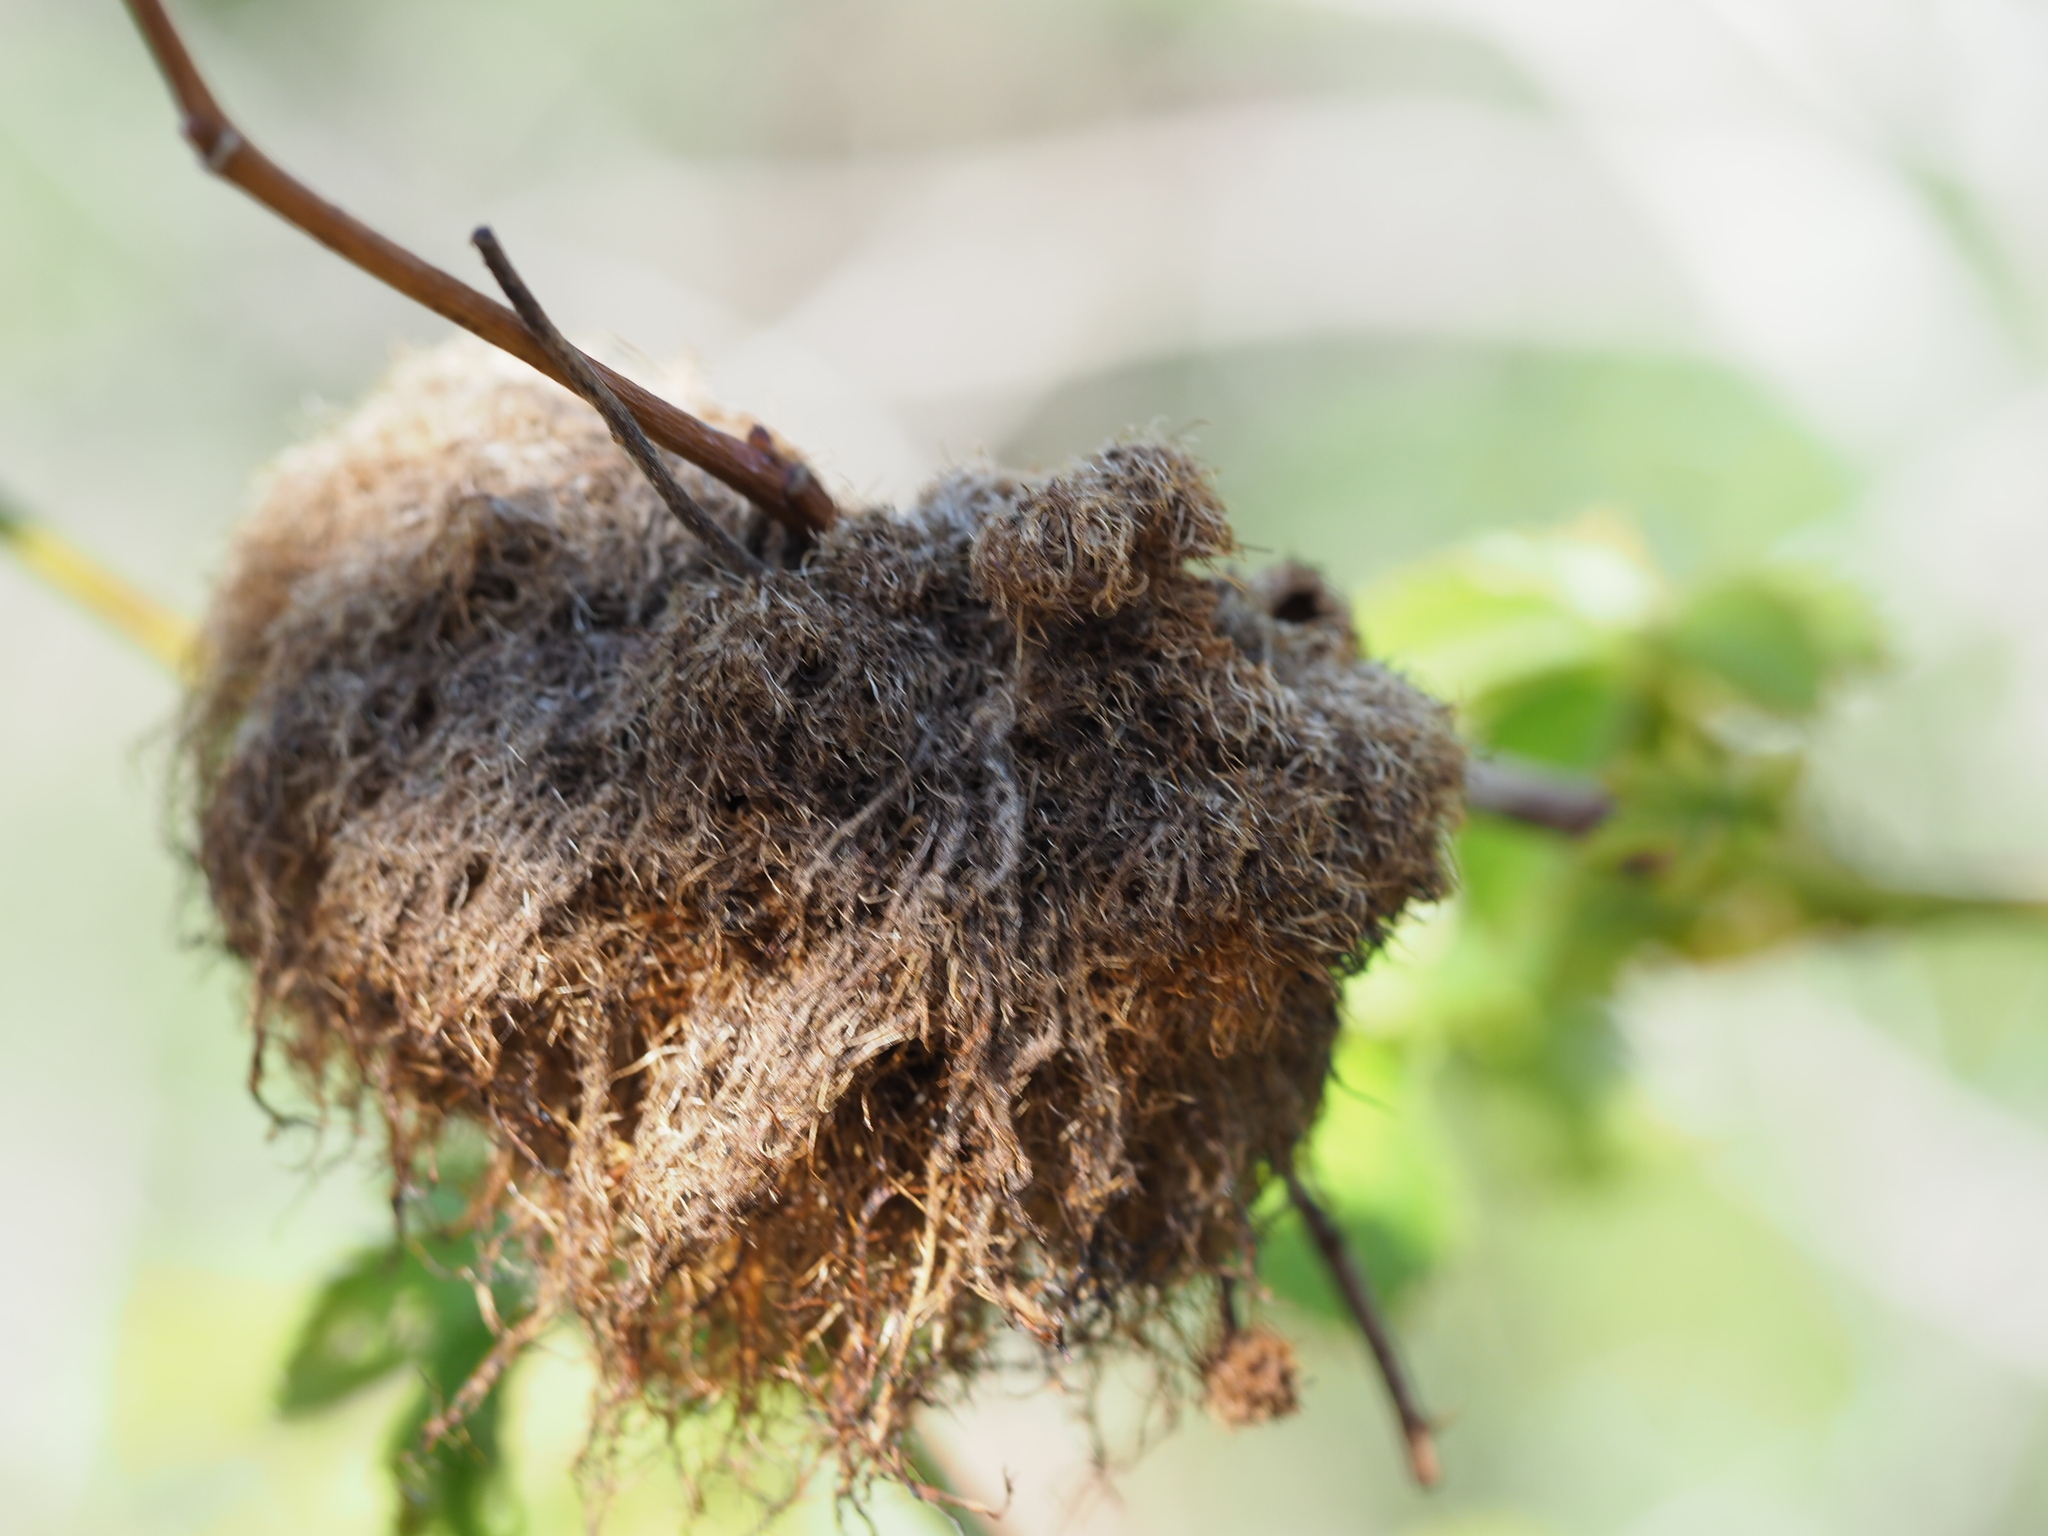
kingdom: Animalia
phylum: Arthropoda
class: Insecta
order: Hymenoptera
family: Cynipidae
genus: Diplolepis
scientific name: Diplolepis rosae
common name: Bedeguar gall
